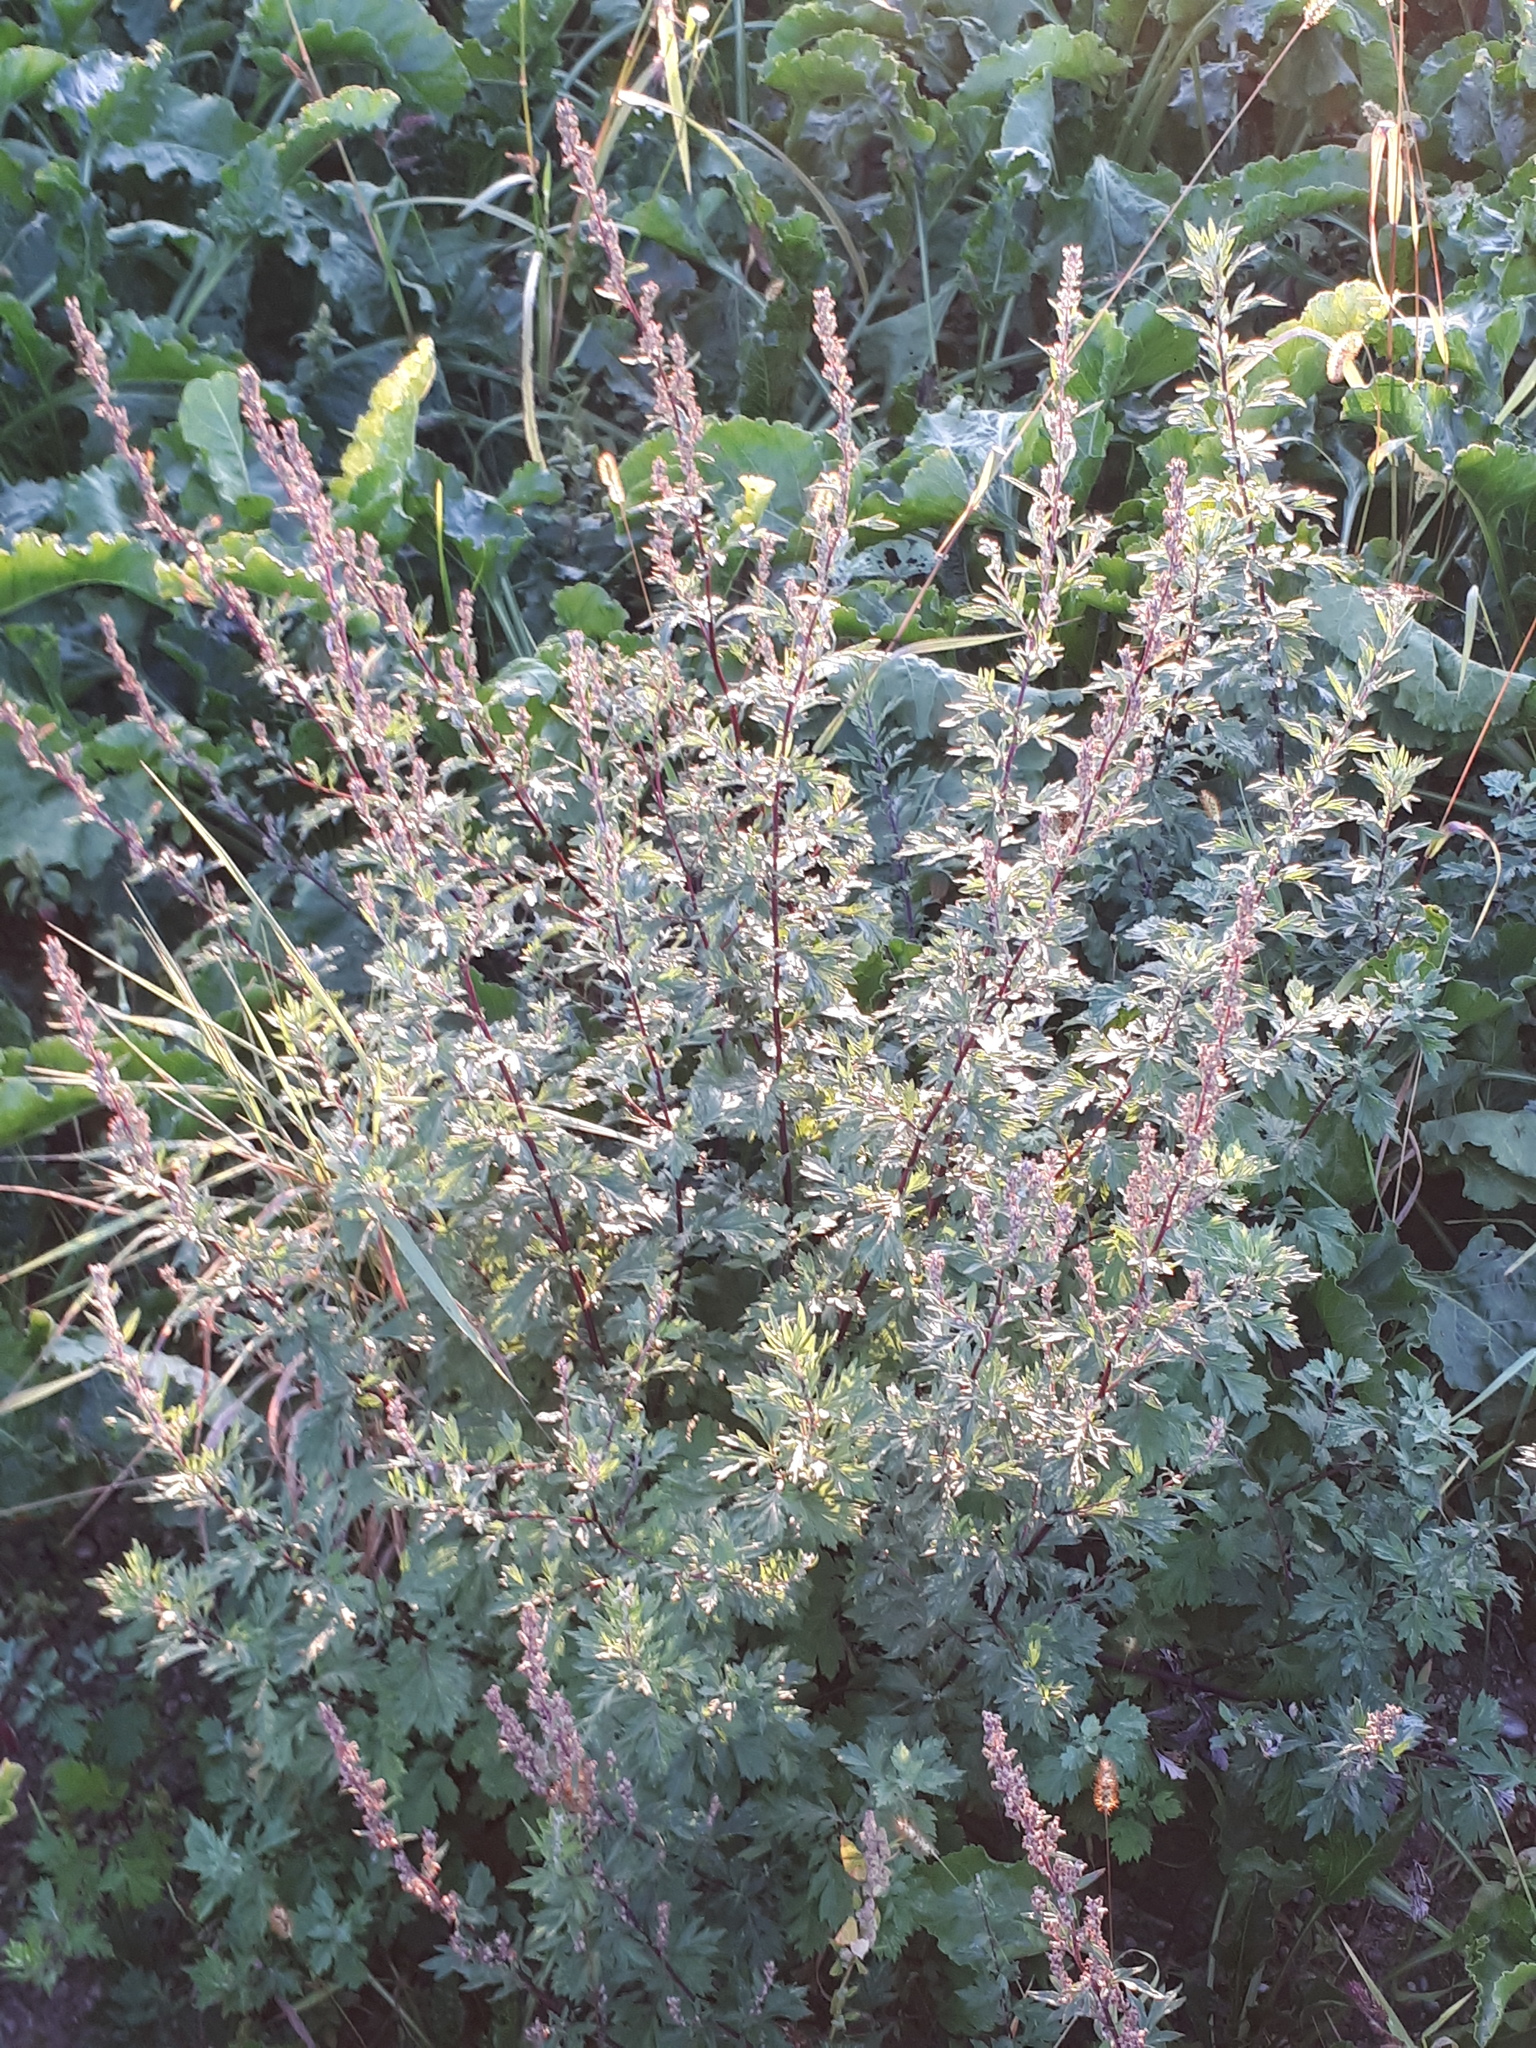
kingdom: Plantae
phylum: Tracheophyta
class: Magnoliopsida
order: Asterales
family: Asteraceae
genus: Artemisia
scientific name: Artemisia vulgaris
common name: Mugwort
